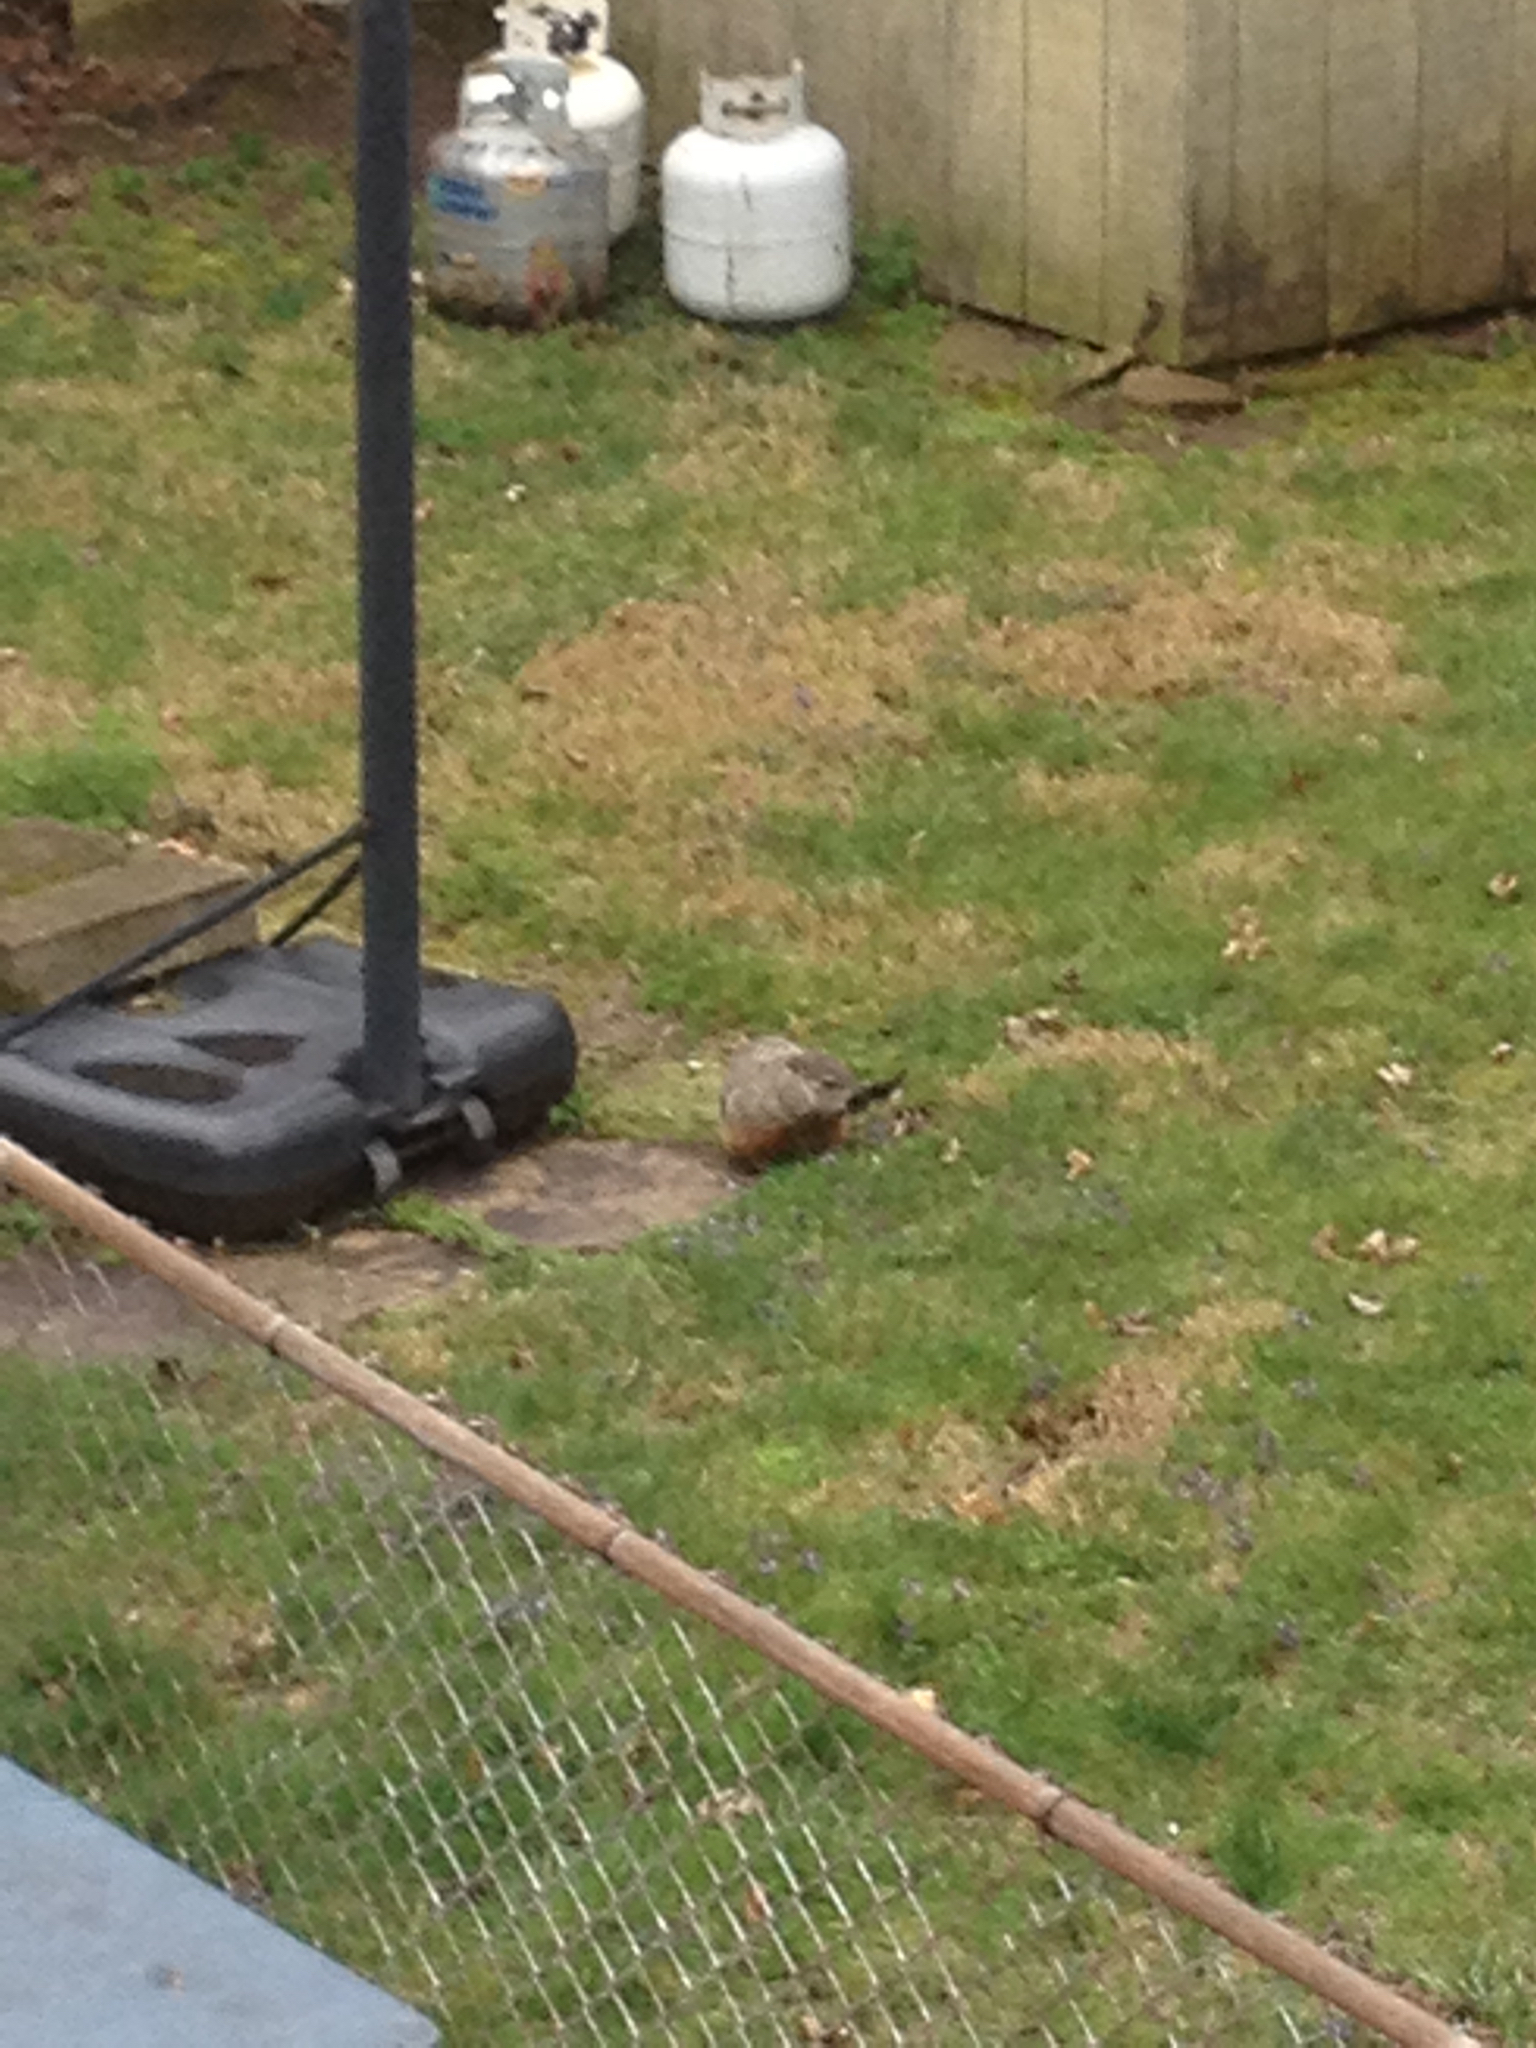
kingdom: Animalia
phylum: Chordata
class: Mammalia
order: Rodentia
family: Sciuridae
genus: Marmota
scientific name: Marmota monax
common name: Groundhog
